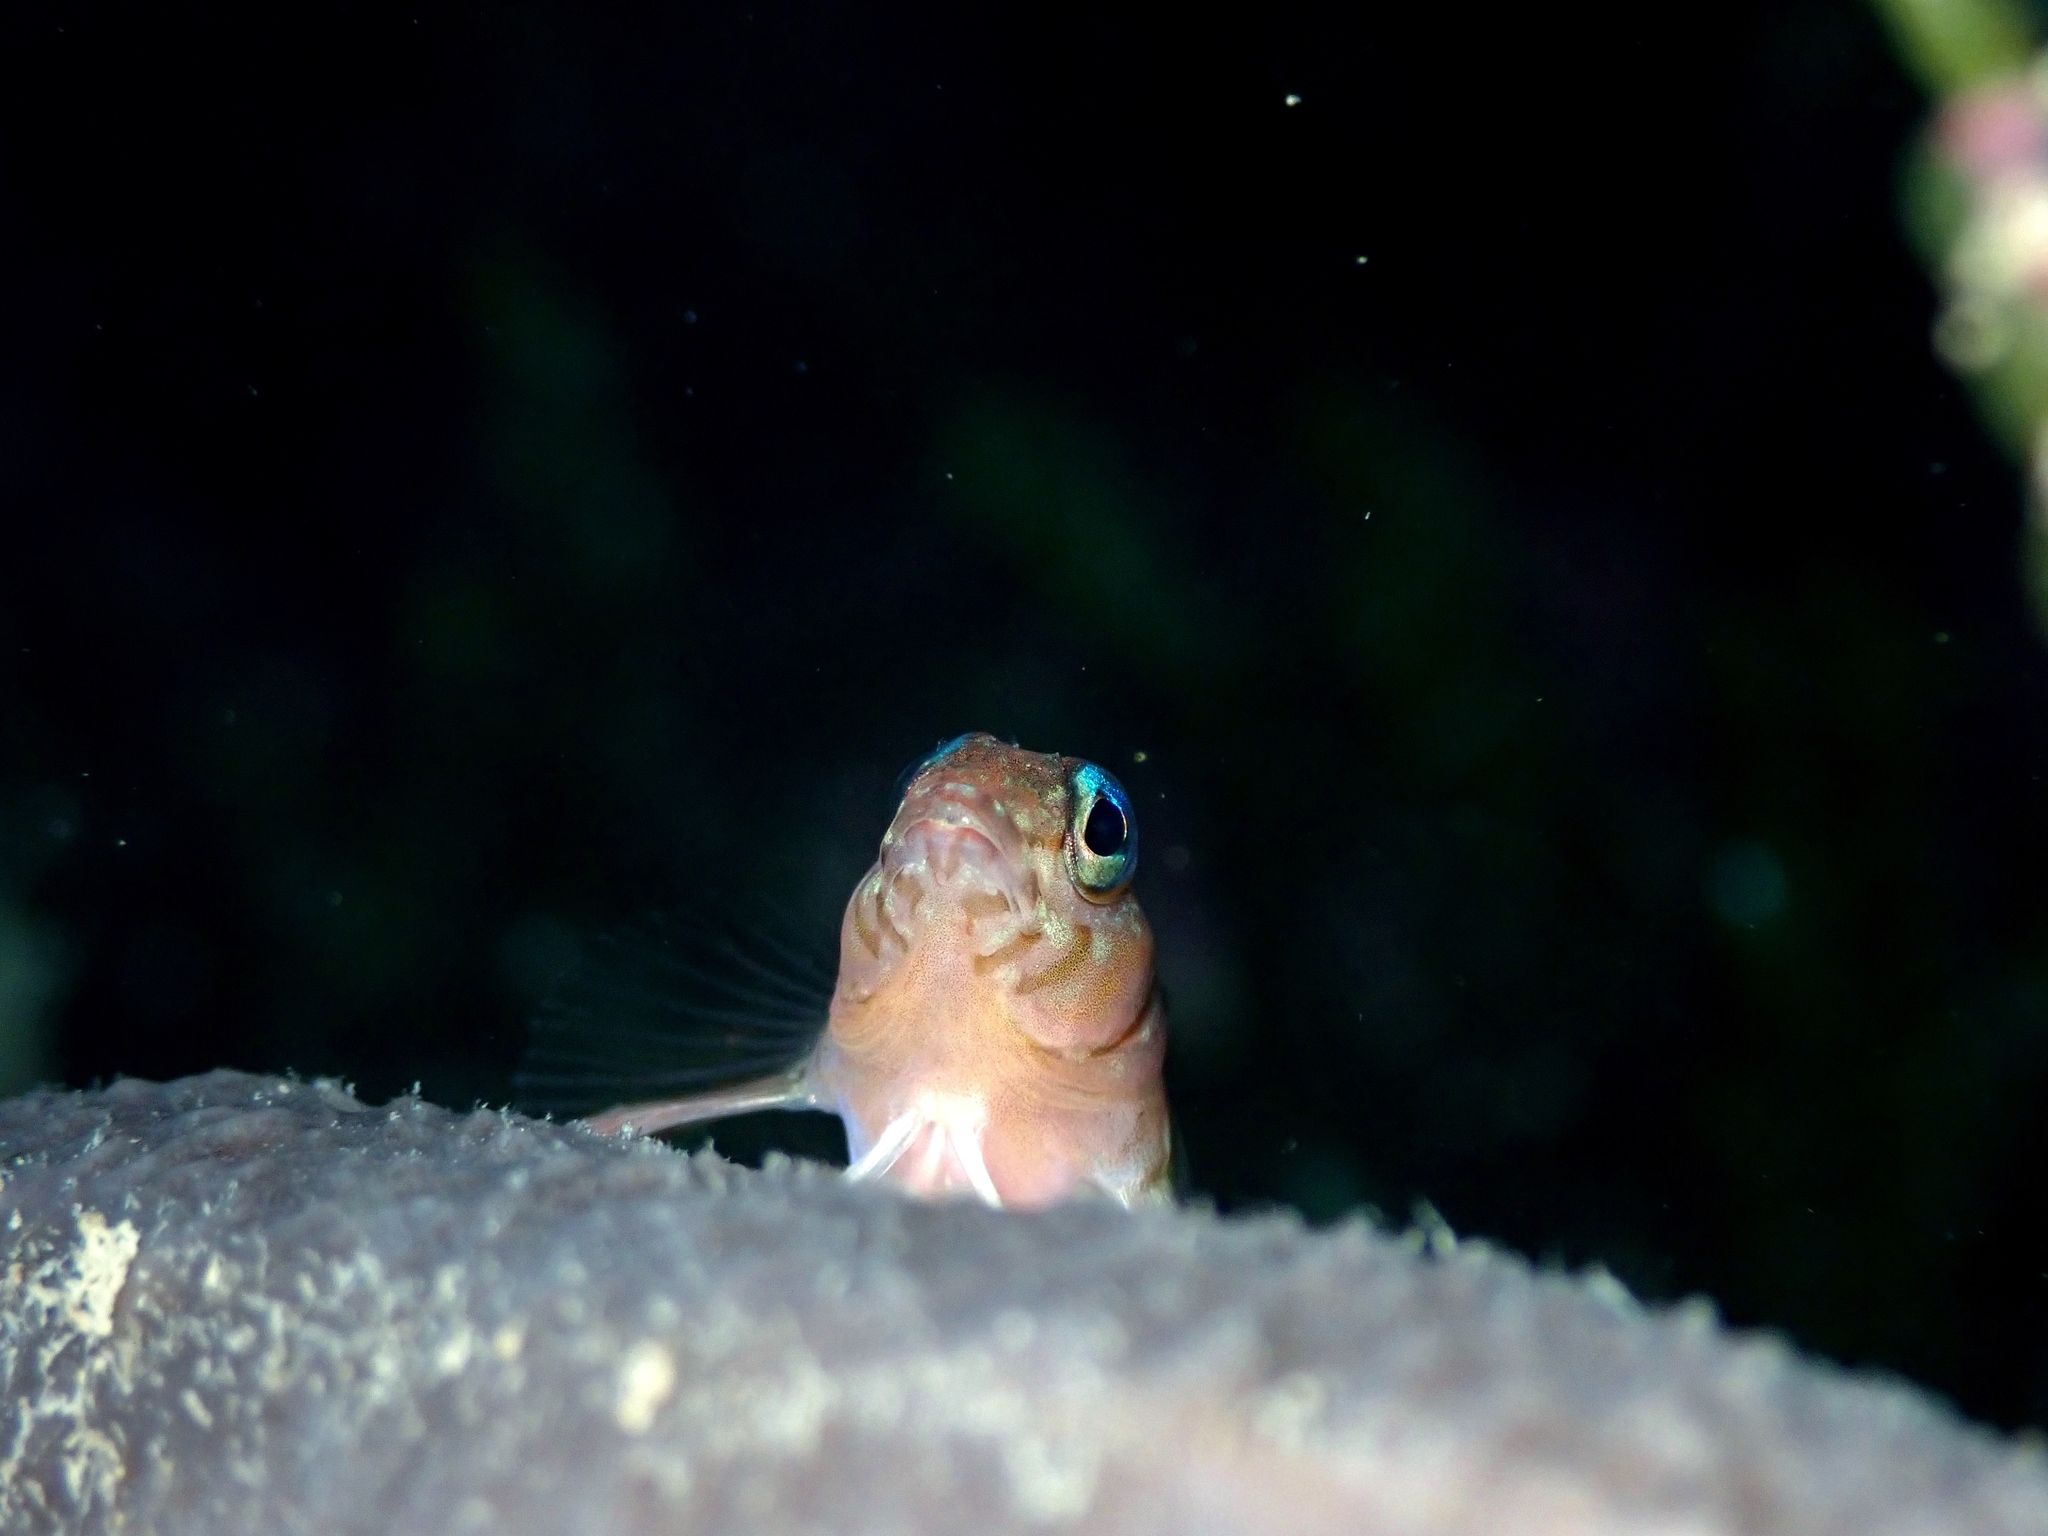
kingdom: Animalia
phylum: Chordata
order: Perciformes
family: Tripterygiidae
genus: Notoclinops
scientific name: Notoclinops segmentatus
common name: Blue-eyed triplefin
